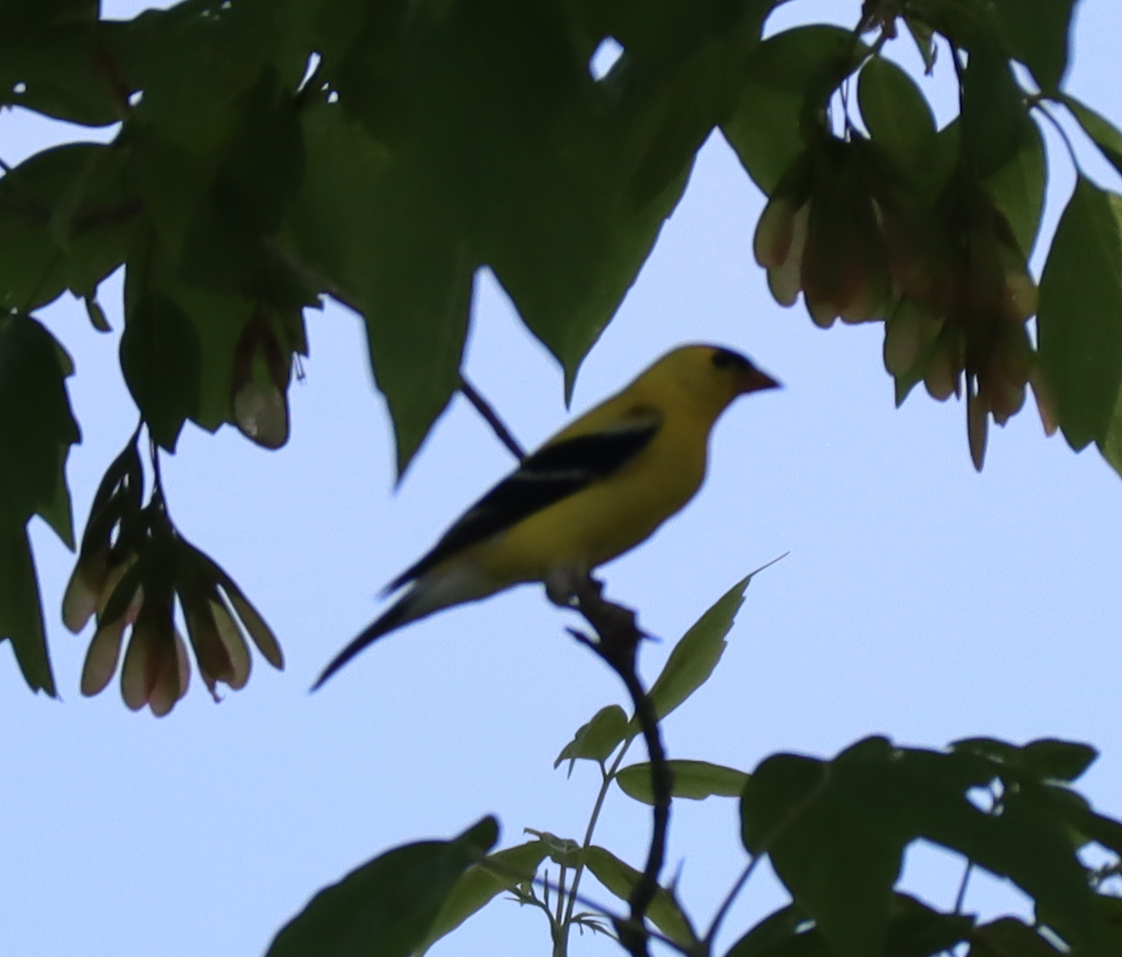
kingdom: Animalia
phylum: Chordata
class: Aves
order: Passeriformes
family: Fringillidae
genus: Spinus
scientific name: Spinus tristis
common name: American goldfinch
